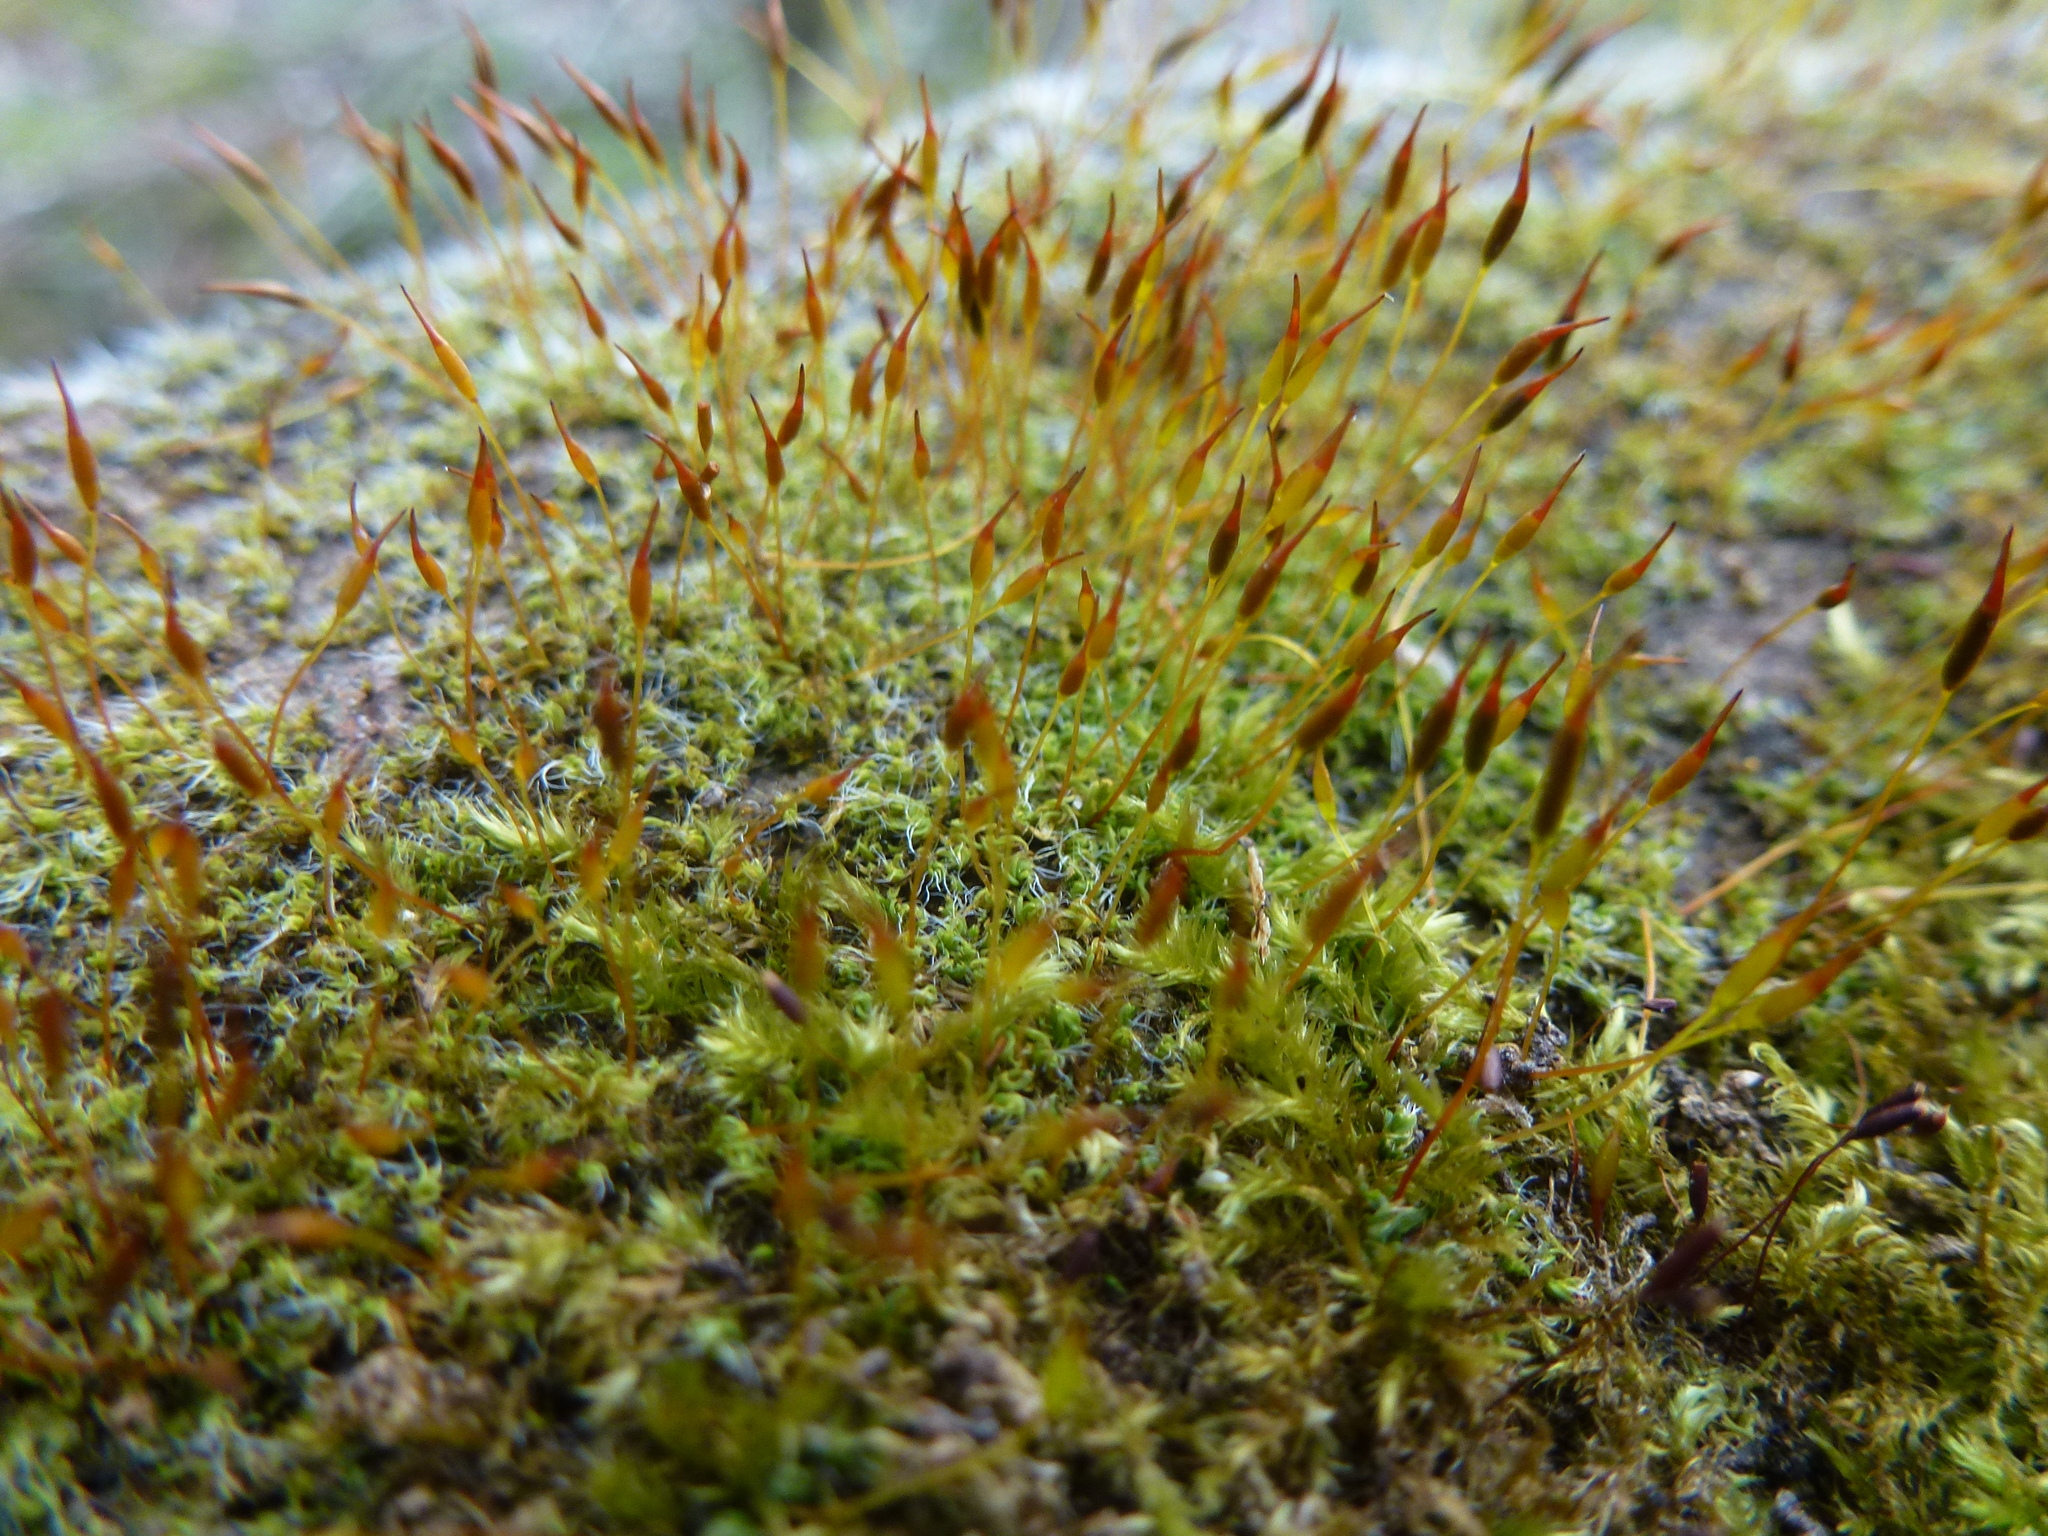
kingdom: Plantae
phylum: Bryophyta
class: Bryopsida
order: Pottiales
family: Pottiaceae
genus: Tortula
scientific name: Tortula muralis
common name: Wall screw-moss
